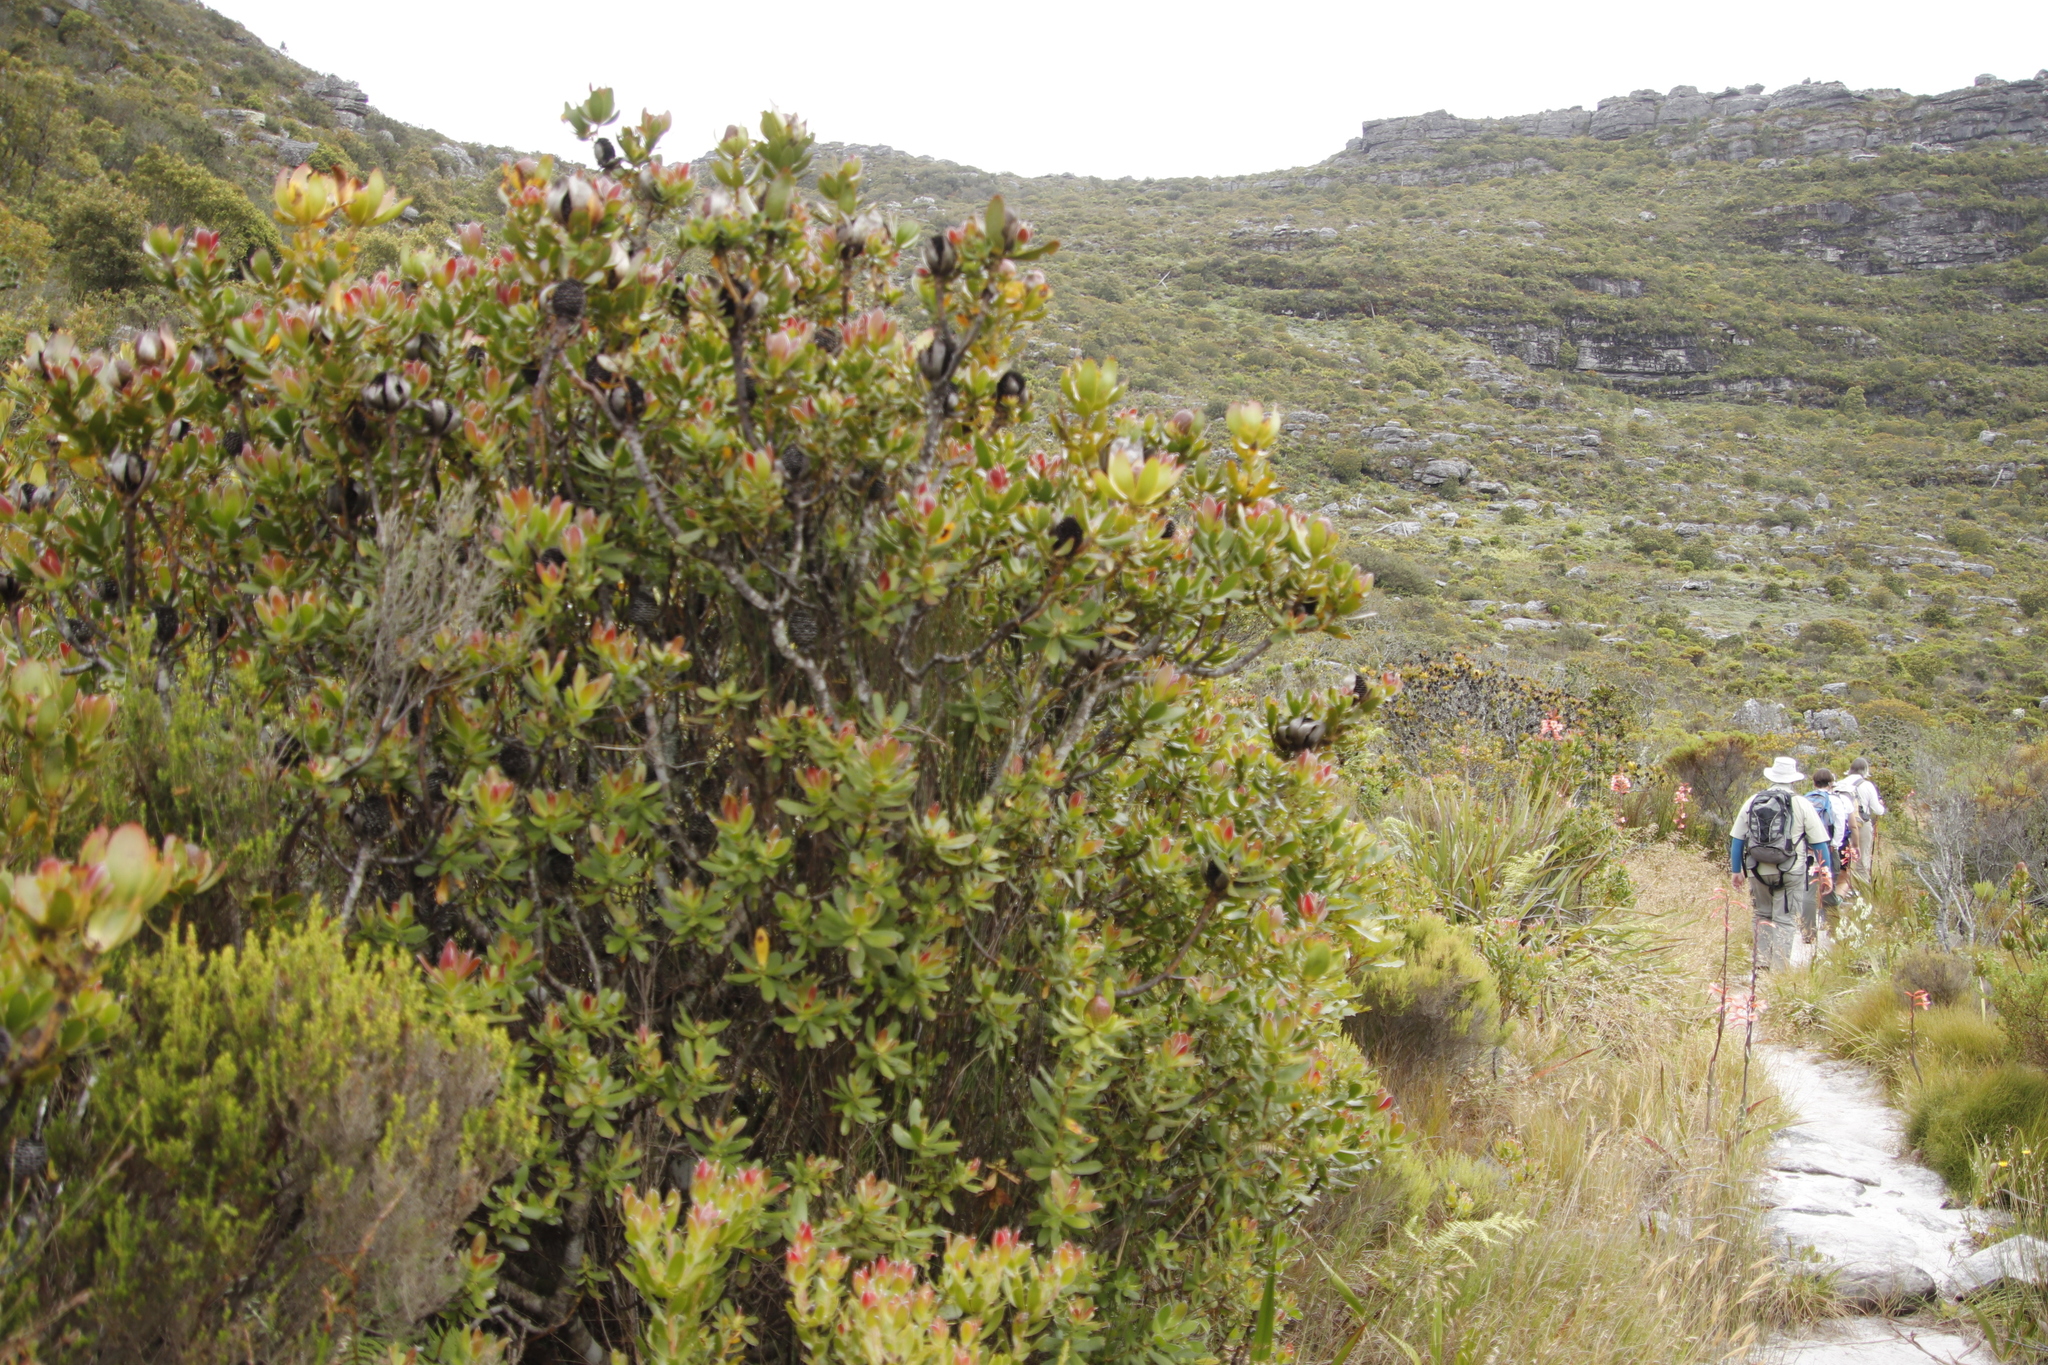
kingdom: Plantae
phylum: Tracheophyta
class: Magnoliopsida
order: Proteales
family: Proteaceae
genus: Leucadendron
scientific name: Leucadendron strobilinum
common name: Mountain rose
